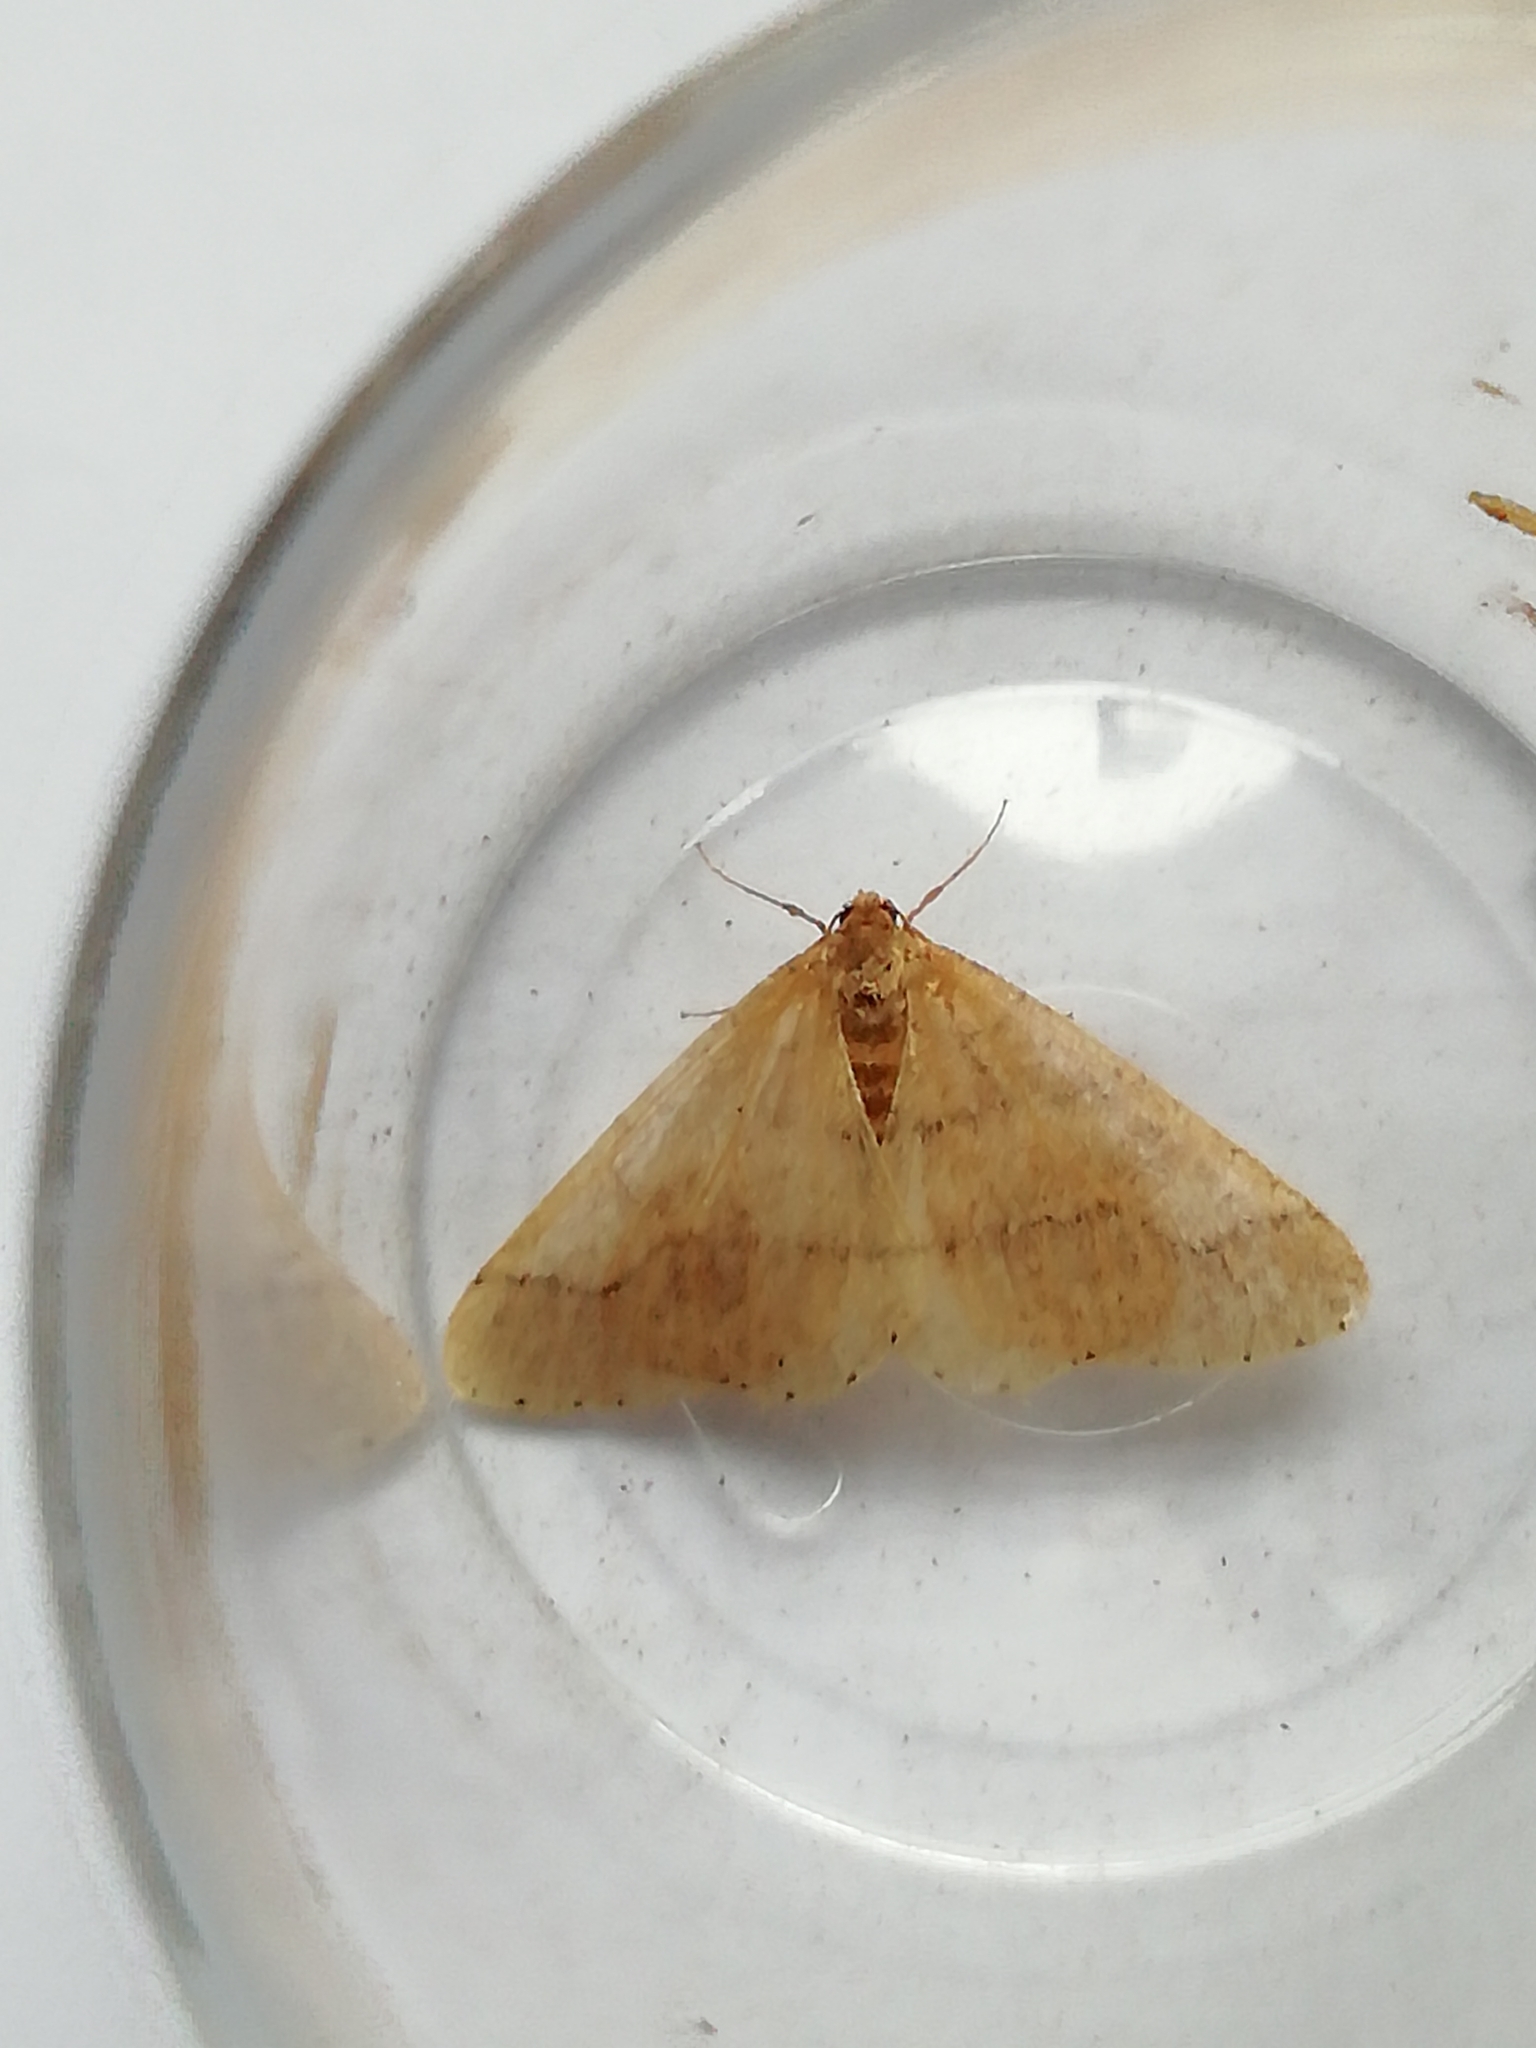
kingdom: Animalia
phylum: Arthropoda
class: Insecta
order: Lepidoptera
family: Geometridae
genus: Agriopis
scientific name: Agriopis marginaria
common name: Dotted border
